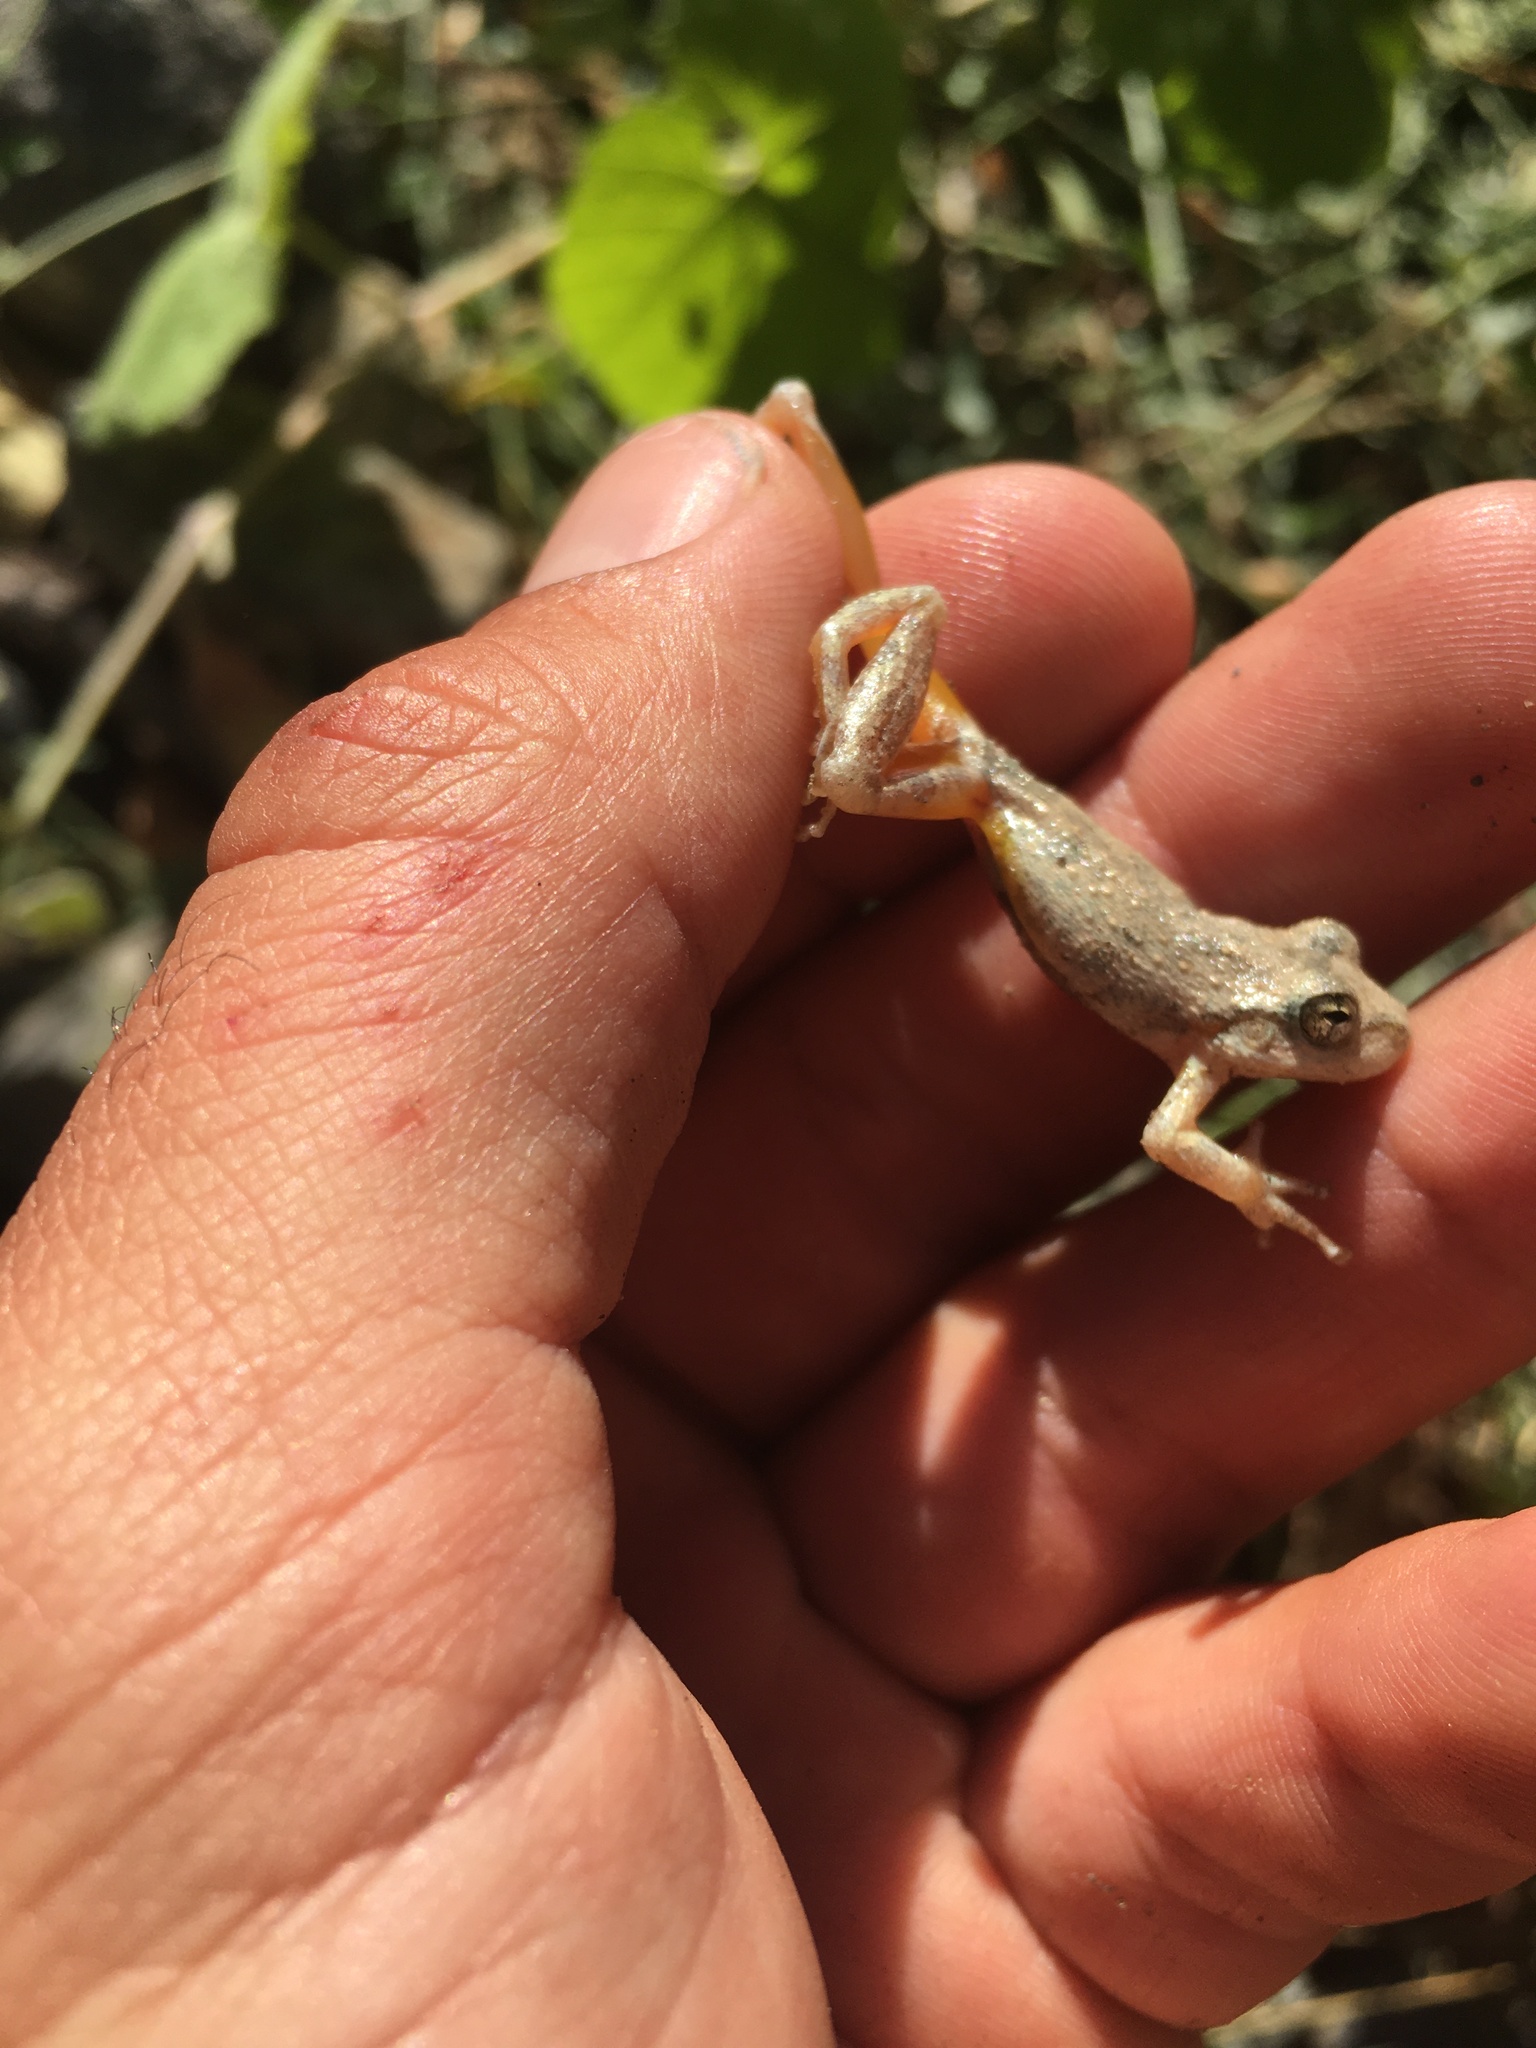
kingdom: Animalia
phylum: Chordata
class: Amphibia
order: Anura
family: Hylidae
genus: Pseudacris
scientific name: Pseudacris cadaverina
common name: California chorus frog
